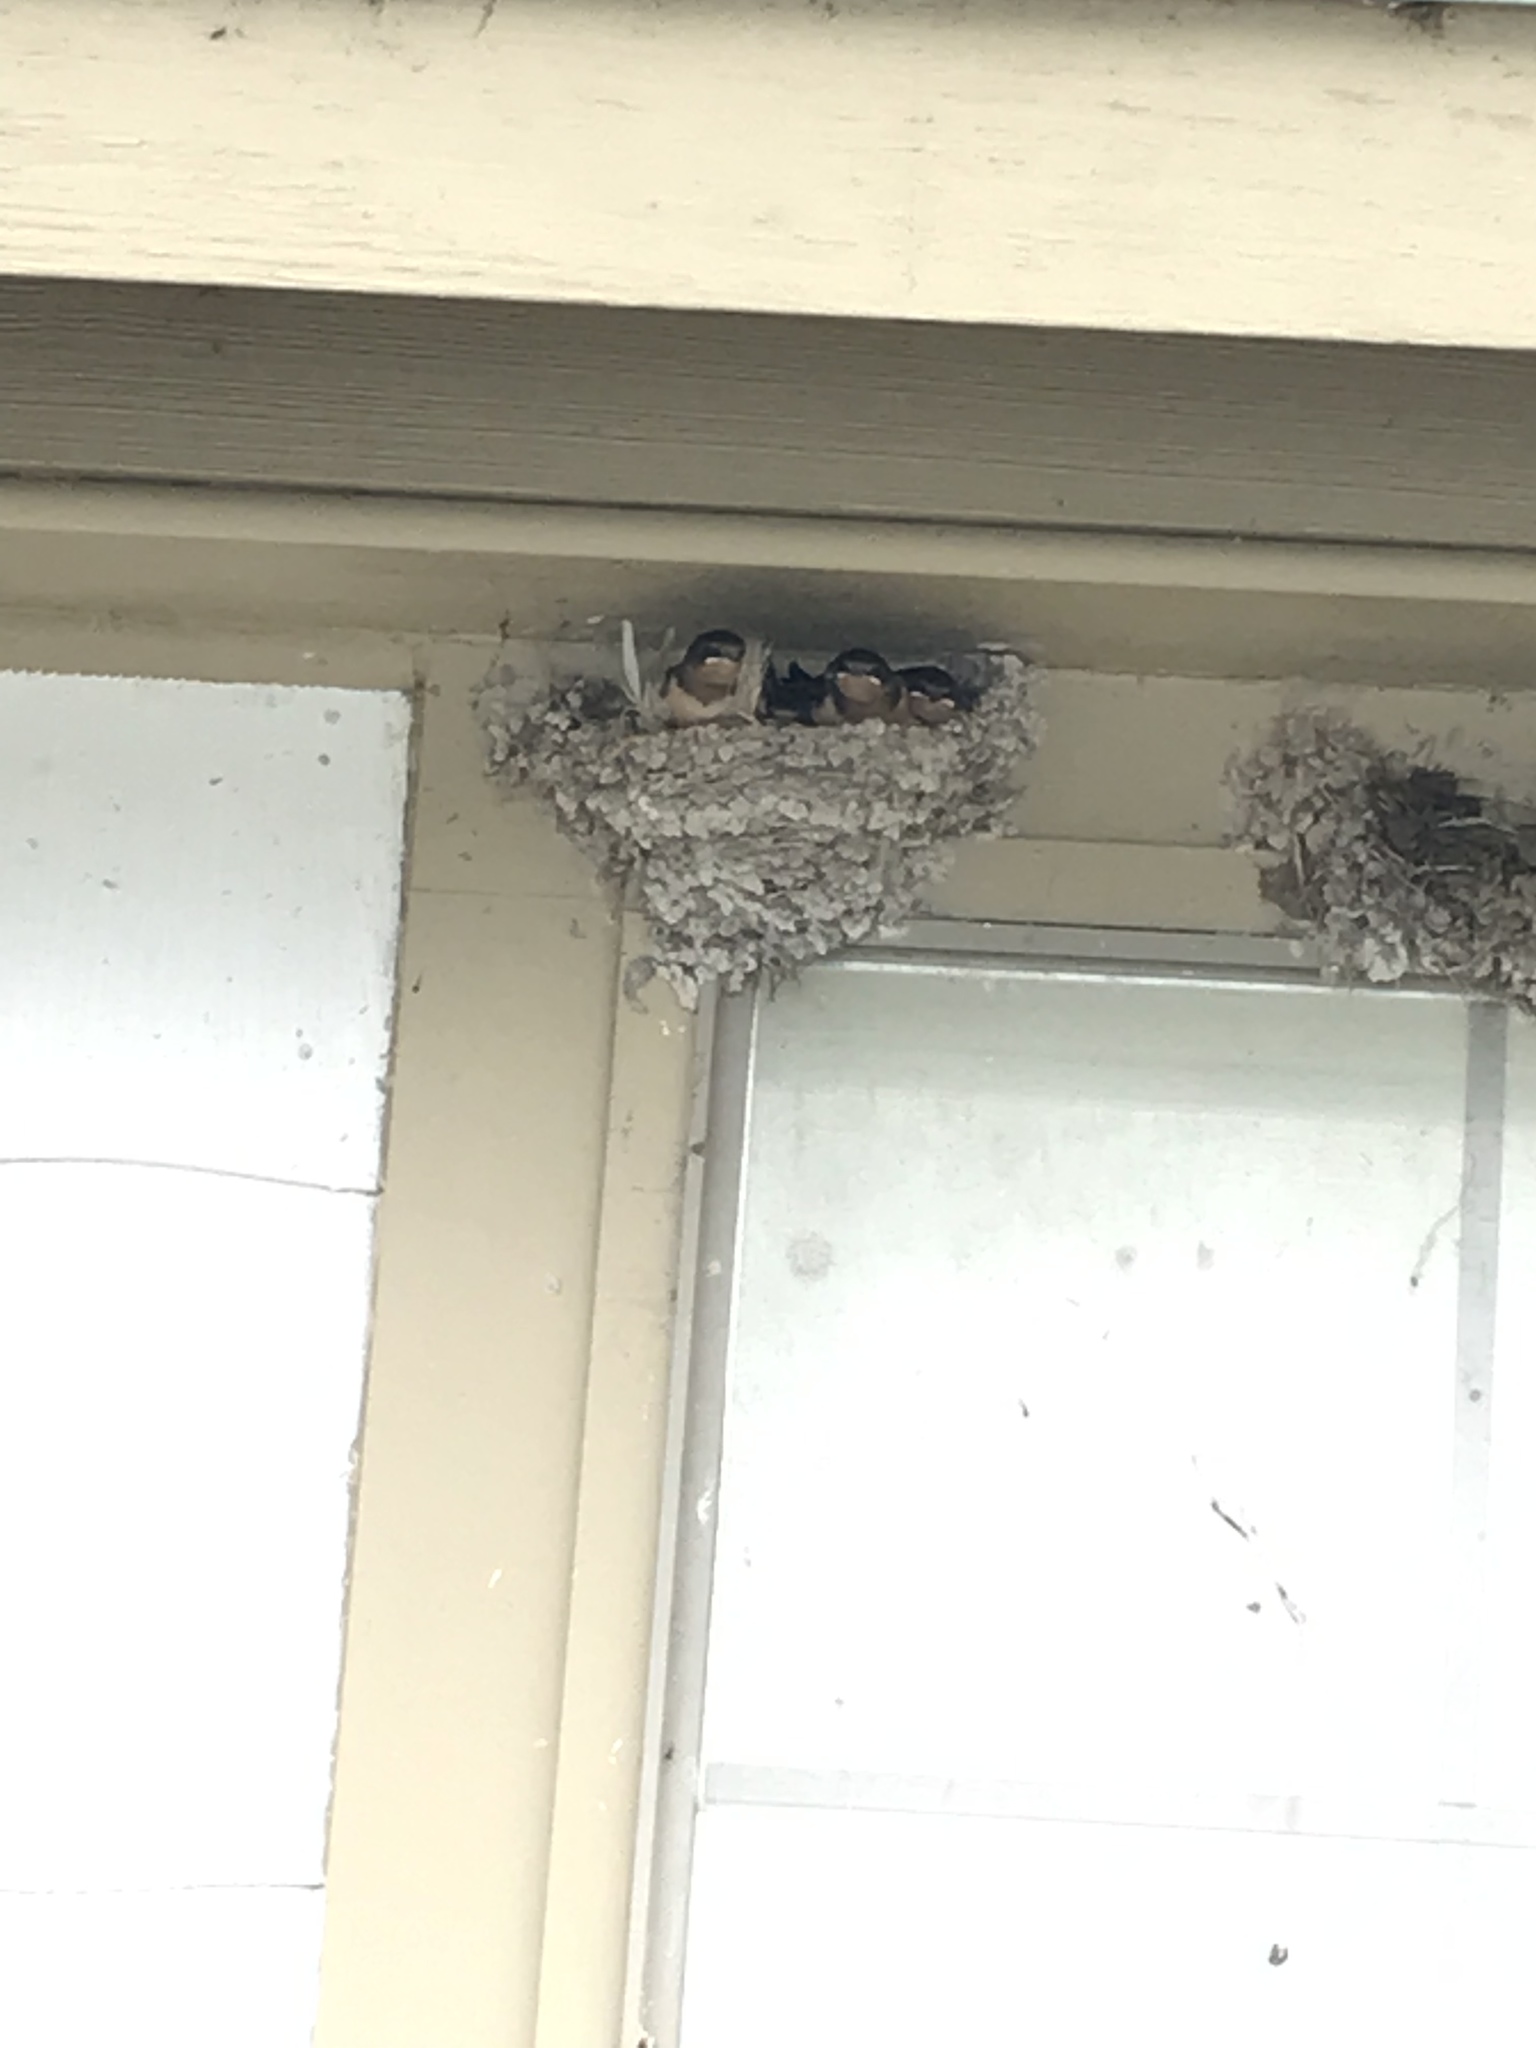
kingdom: Animalia
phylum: Chordata
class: Aves
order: Passeriformes
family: Hirundinidae
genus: Hirundo
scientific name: Hirundo rustica
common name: Barn swallow
